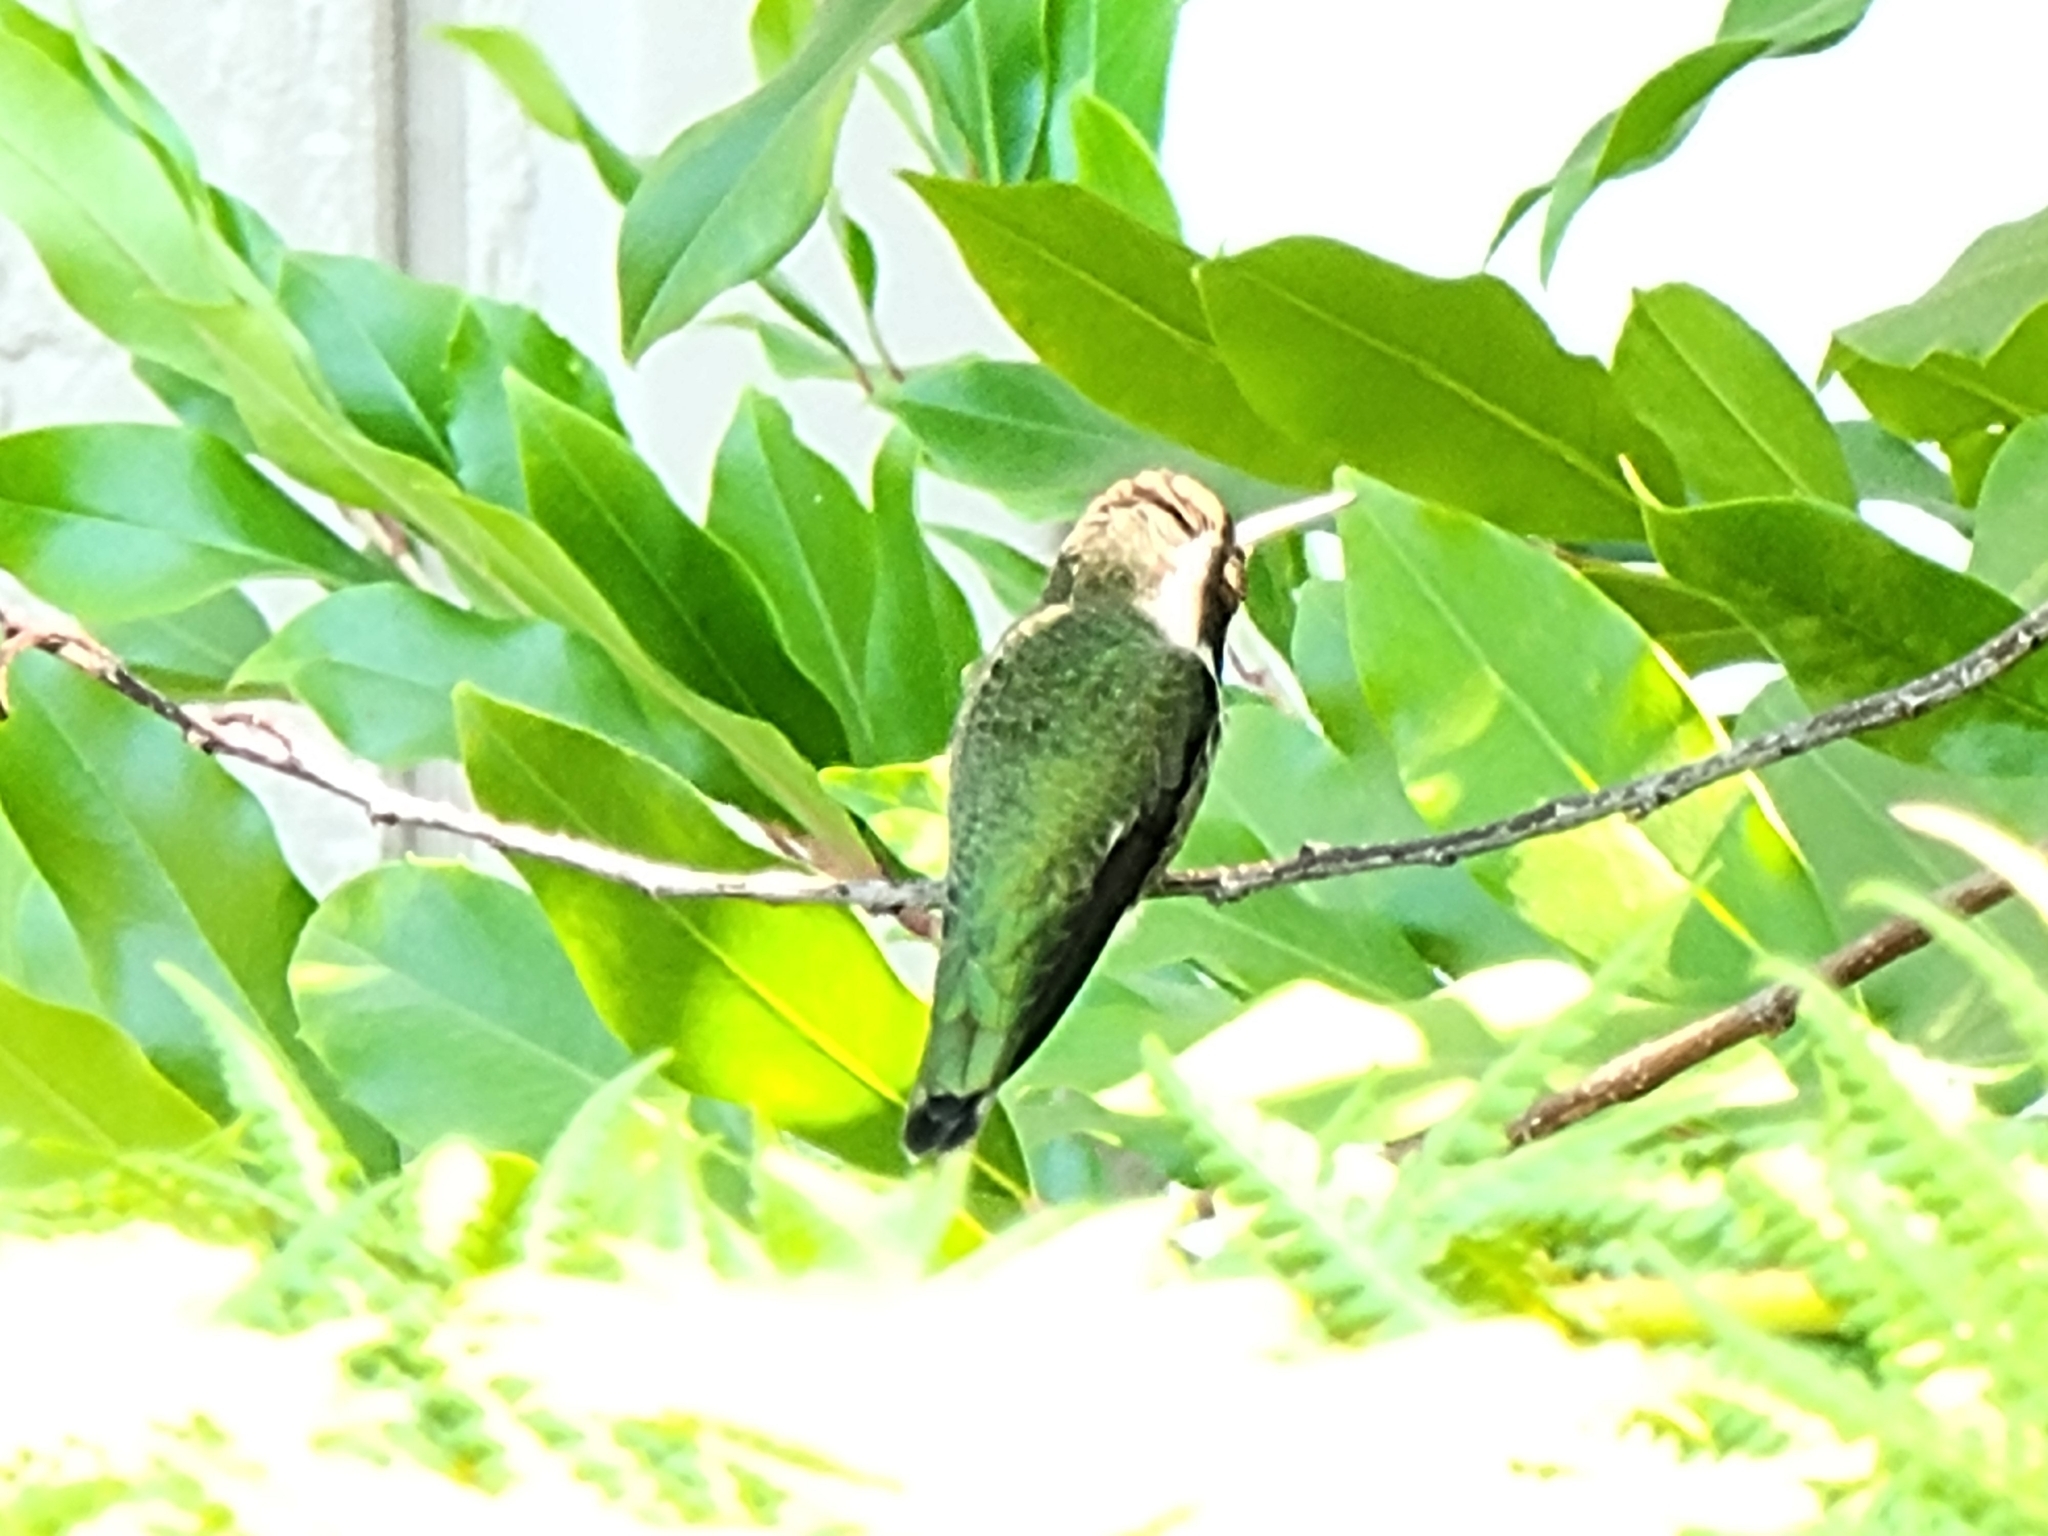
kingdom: Animalia
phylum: Chordata
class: Aves
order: Apodiformes
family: Trochilidae
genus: Calypte
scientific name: Calypte anna
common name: Anna's hummingbird
